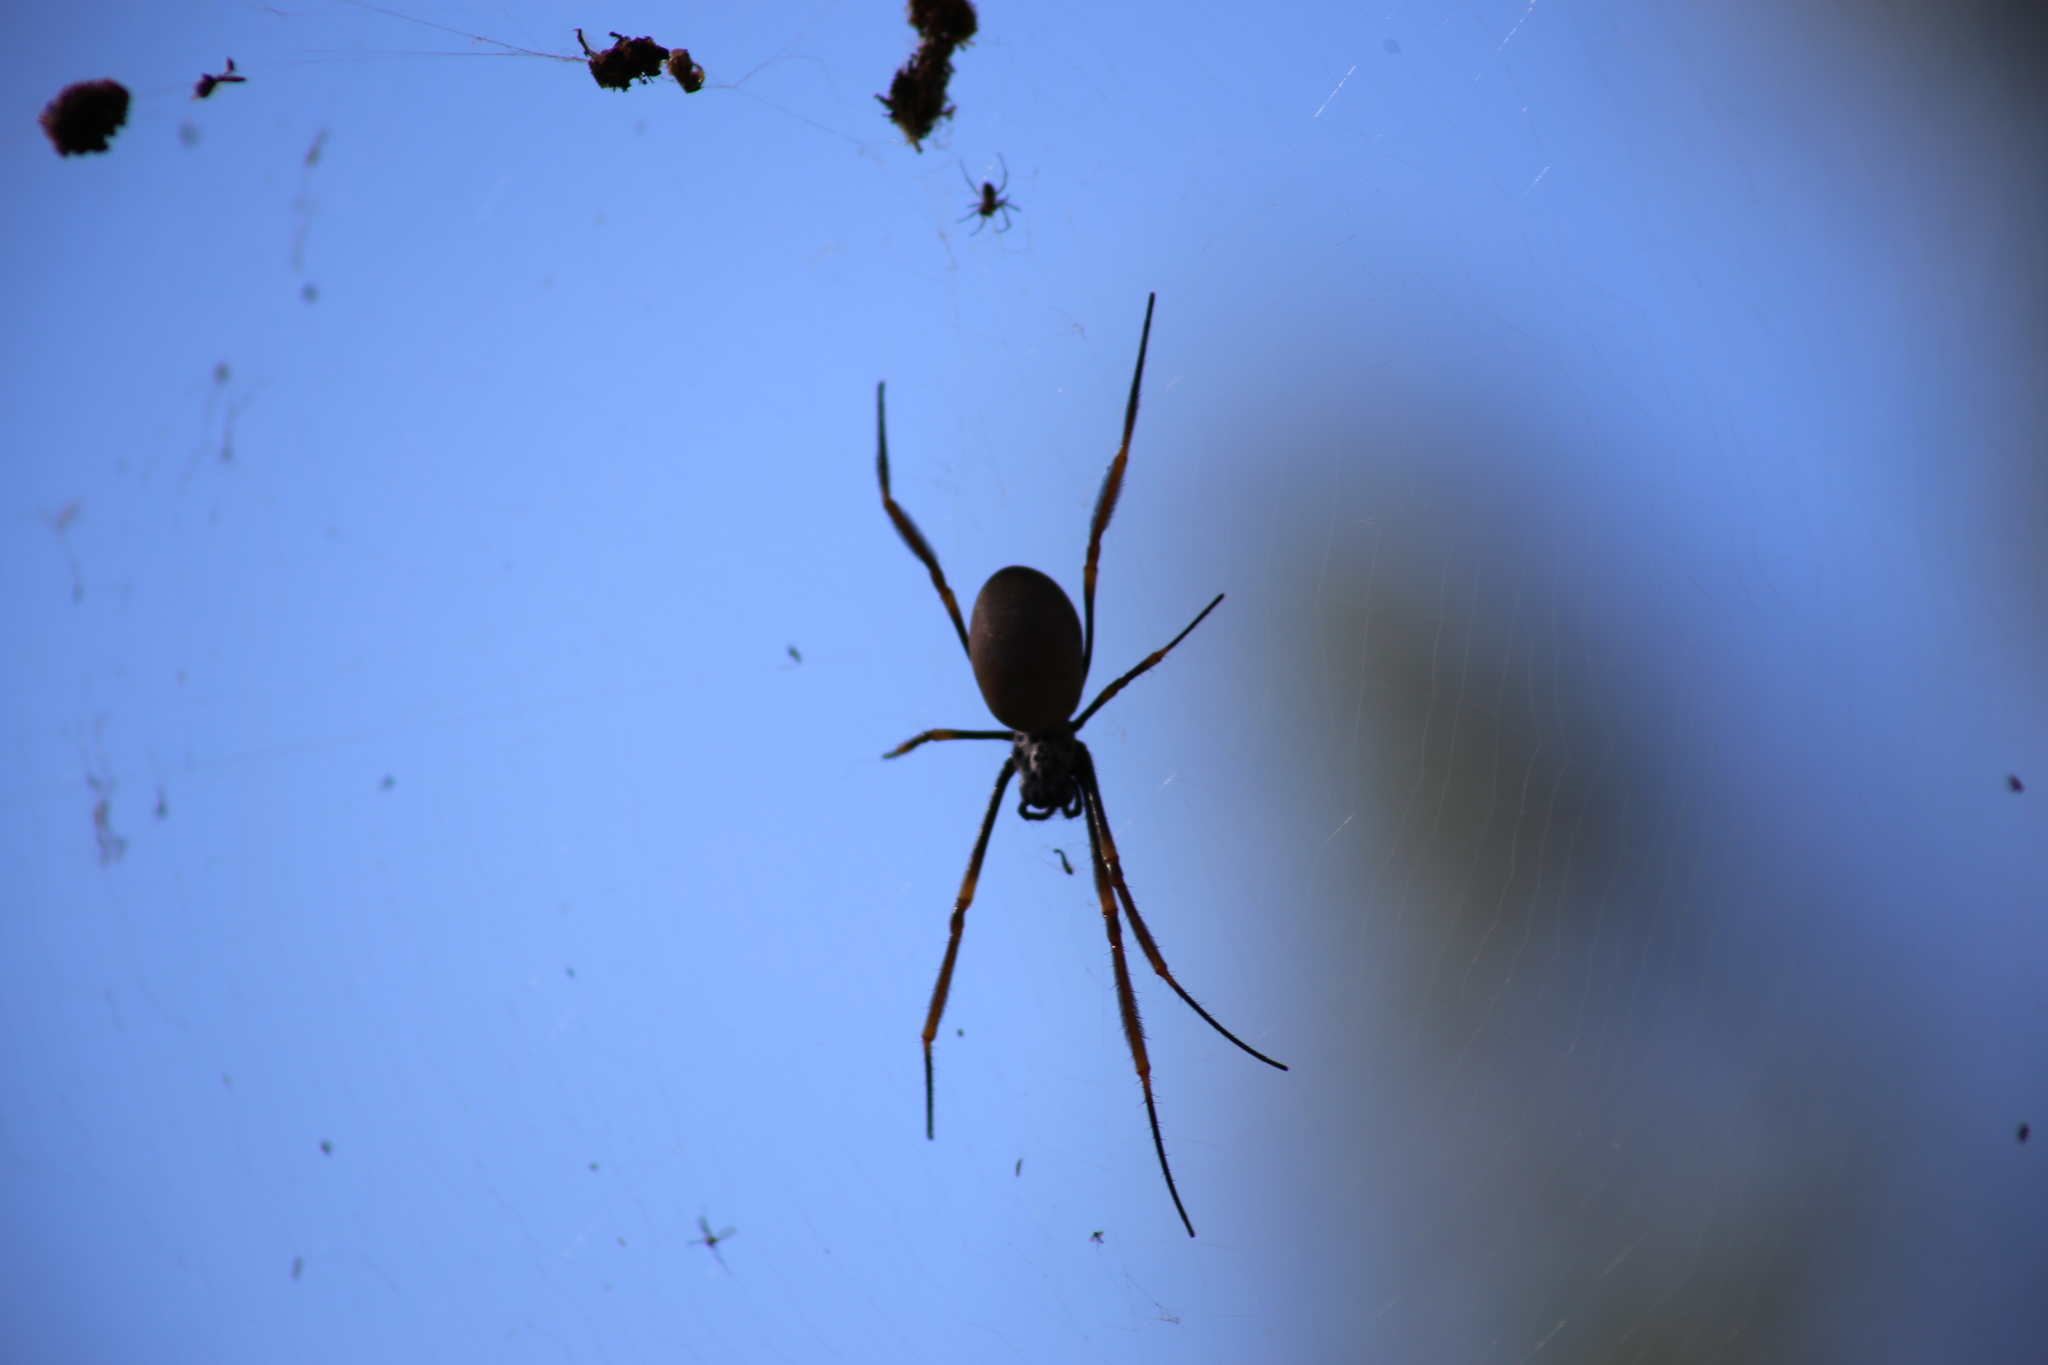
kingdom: Animalia
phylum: Arthropoda
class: Arachnida
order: Araneae
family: Araneidae
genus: Trichonephila
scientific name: Trichonephila plumipes
